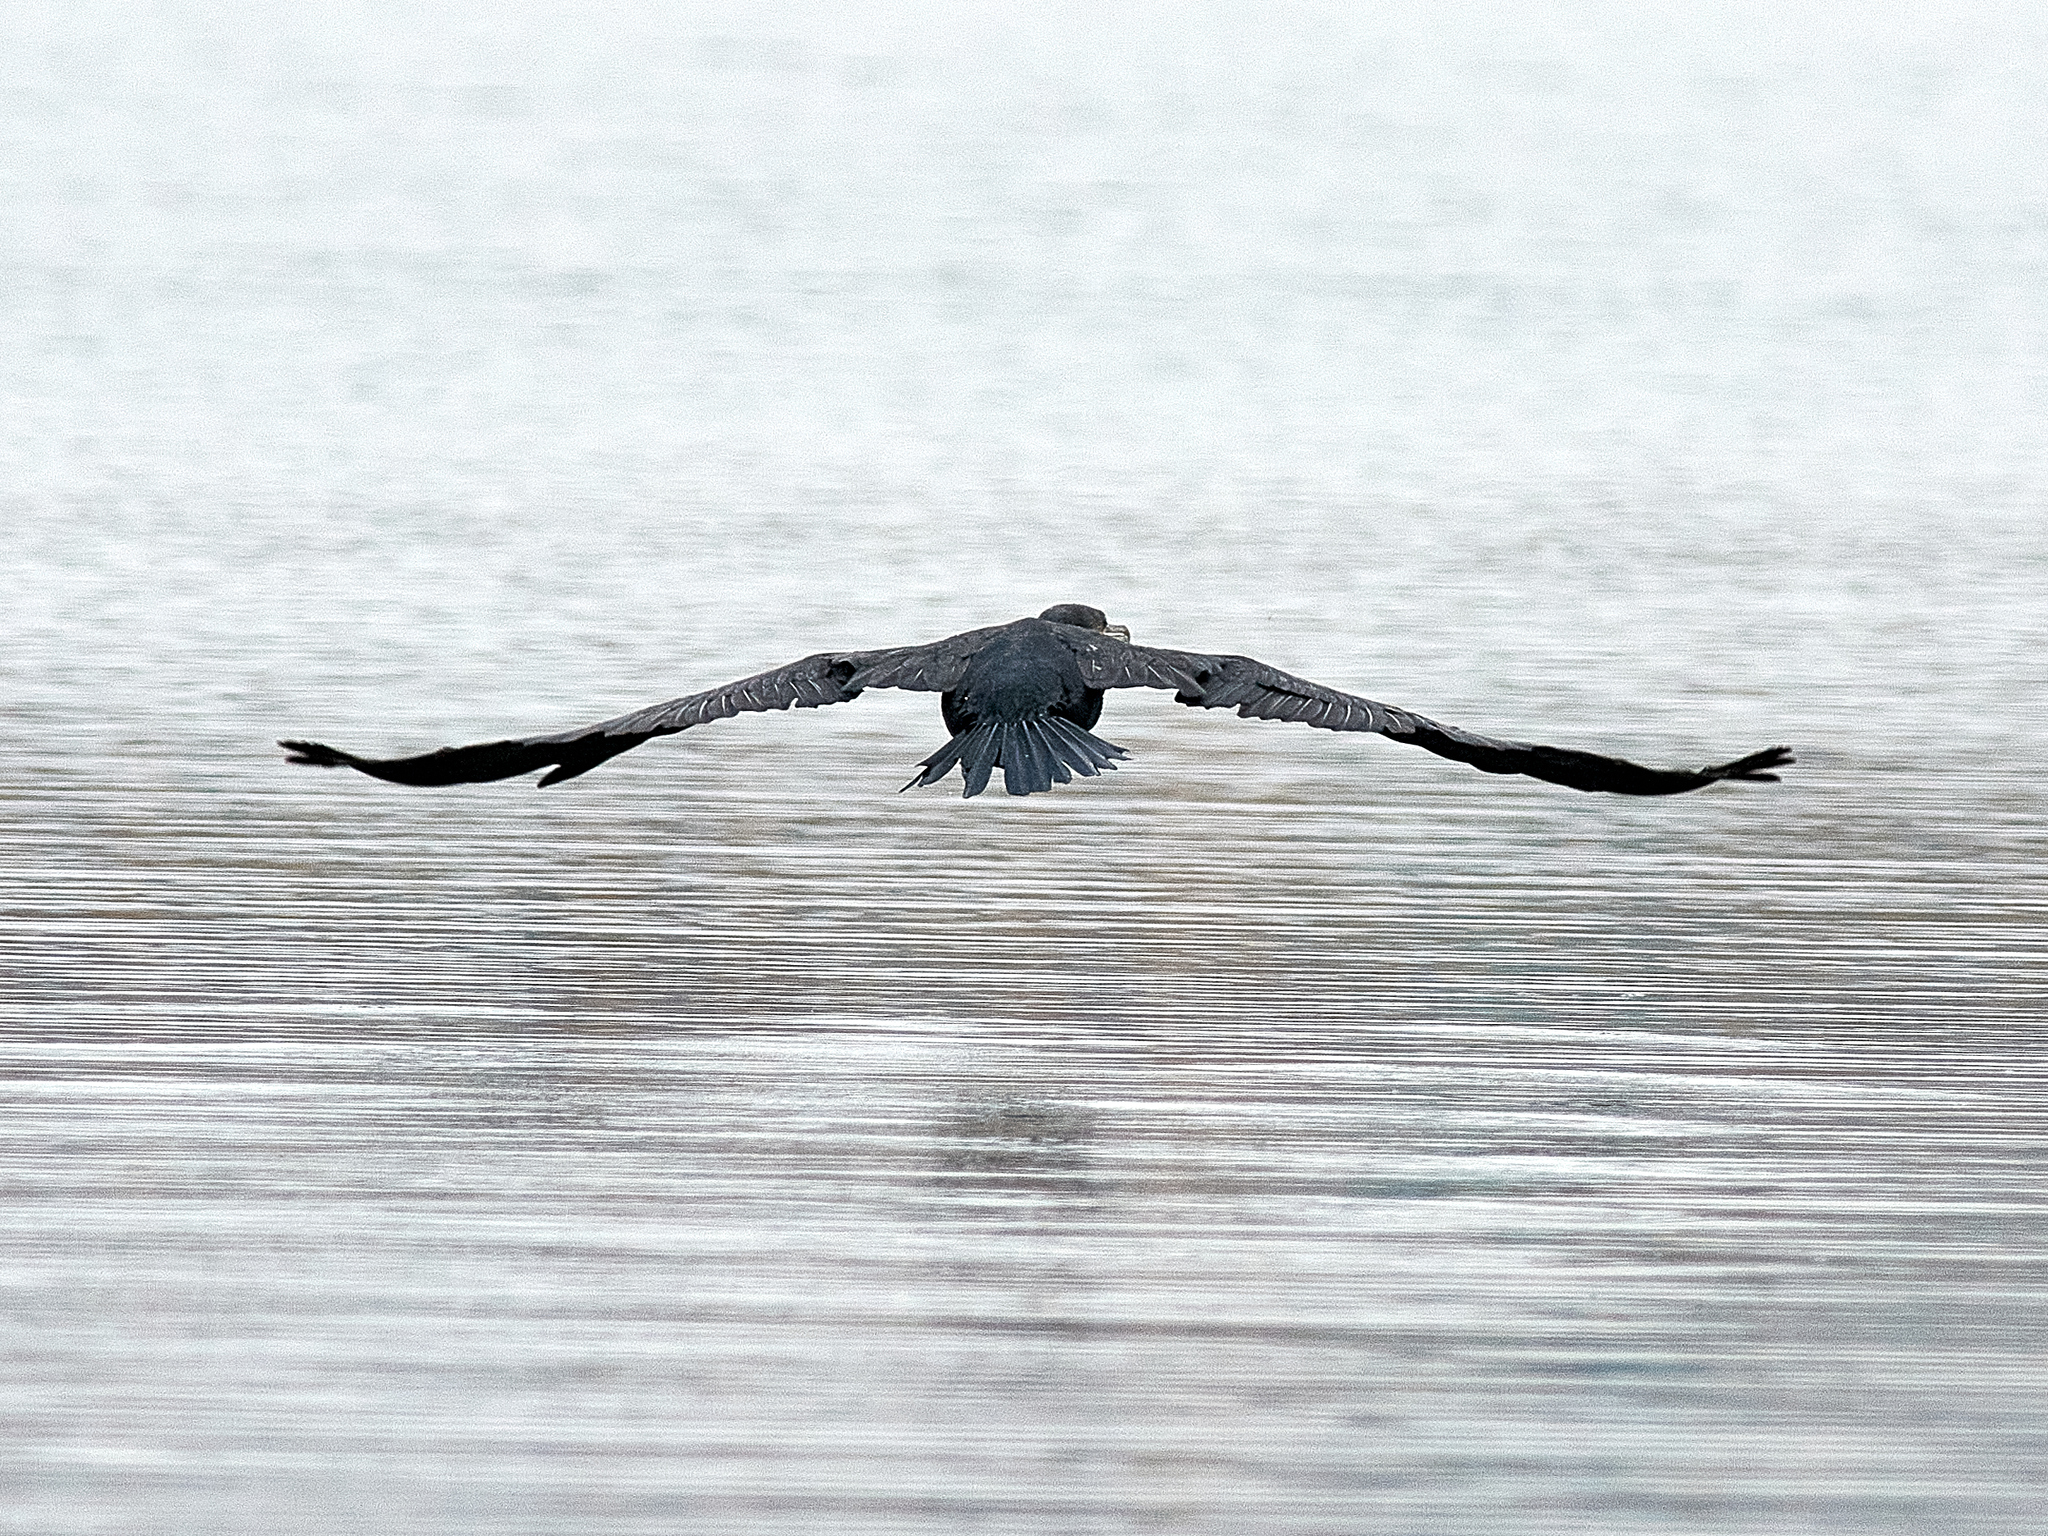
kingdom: Animalia
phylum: Chordata
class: Aves
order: Suliformes
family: Phalacrocoracidae
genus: Phalacrocorax
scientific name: Phalacrocorax carbo
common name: Great cormorant
